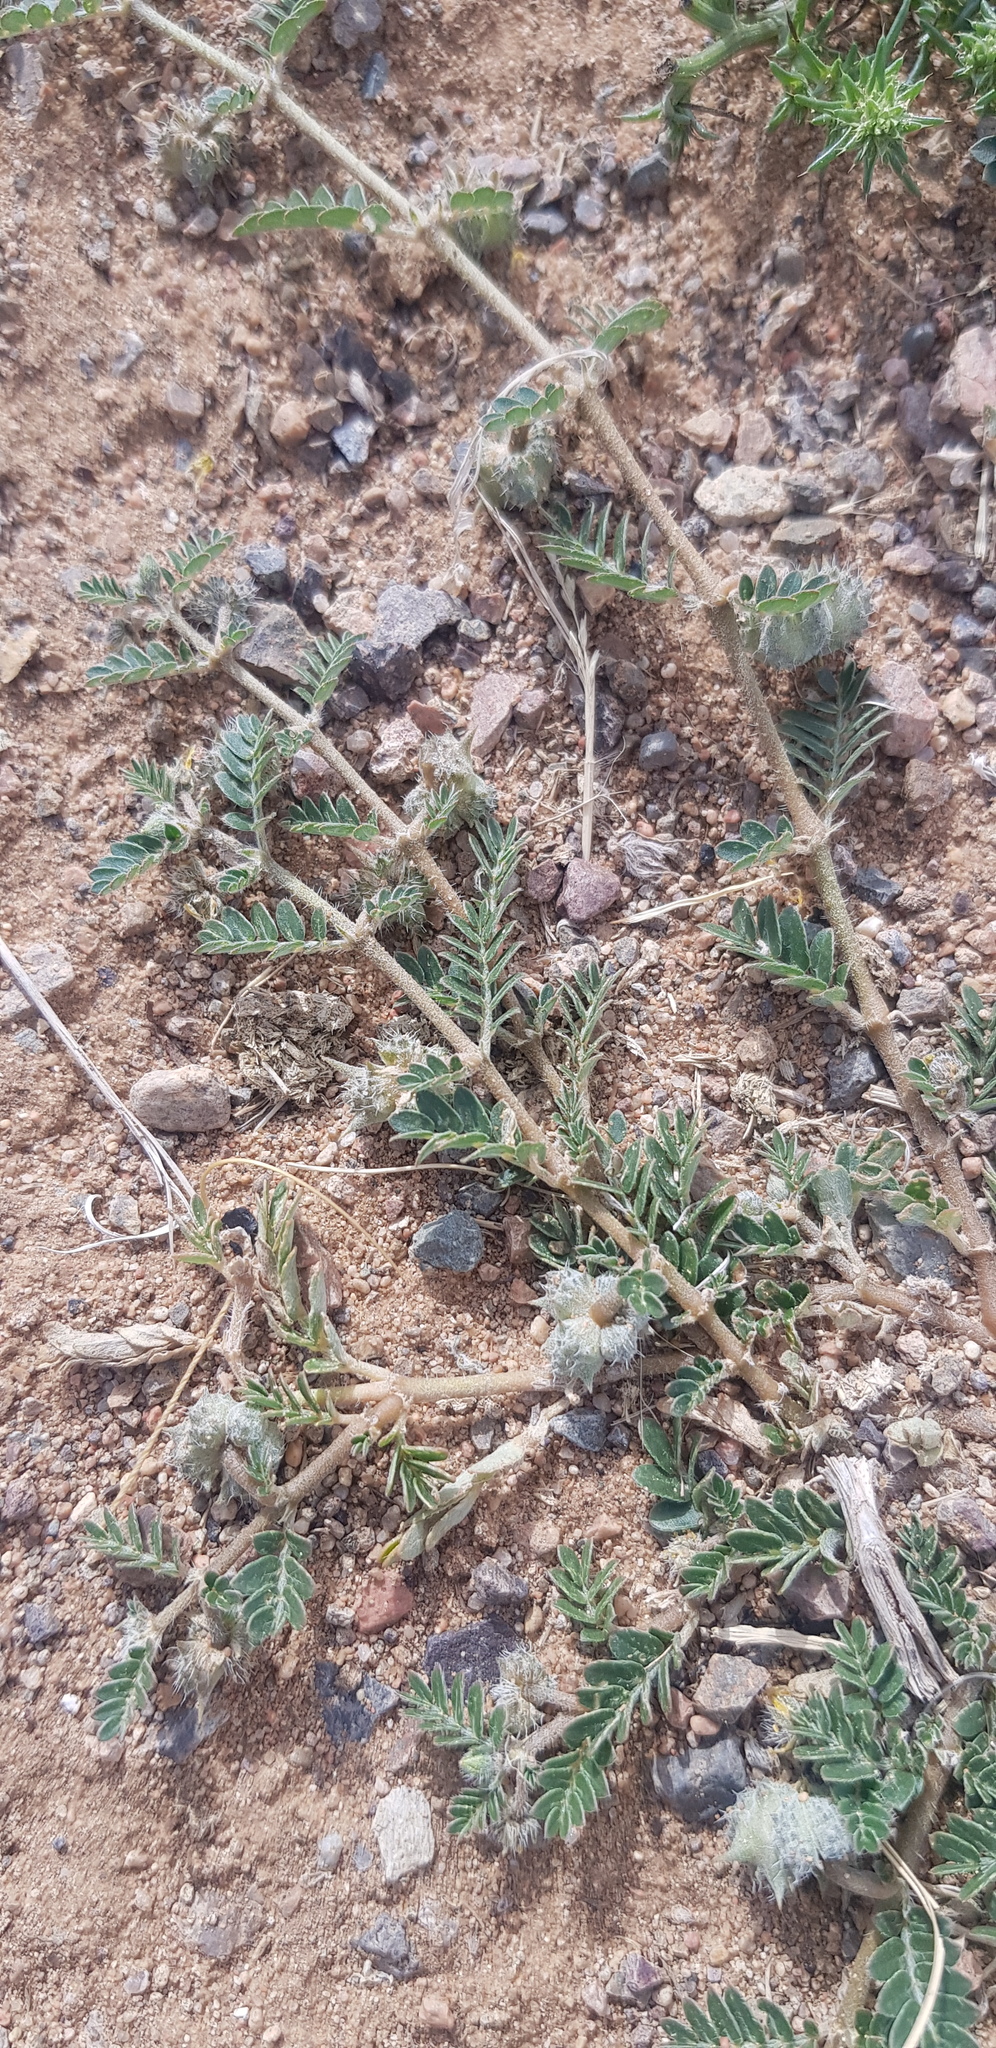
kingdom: Plantae
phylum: Tracheophyta
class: Magnoliopsida
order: Zygophyllales
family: Zygophyllaceae
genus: Tribulus
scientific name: Tribulus terrestris
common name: Puncturevine
